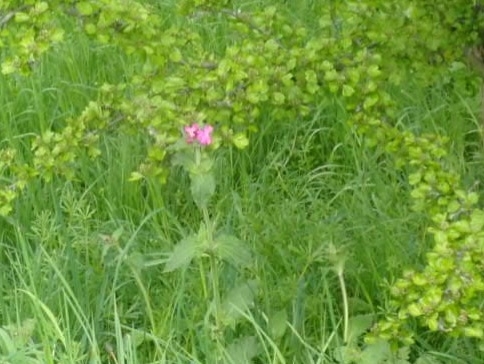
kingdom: Plantae
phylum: Tracheophyta
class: Magnoliopsida
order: Caryophyllales
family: Caryophyllaceae
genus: Silene
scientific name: Silene dioica
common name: Red campion
